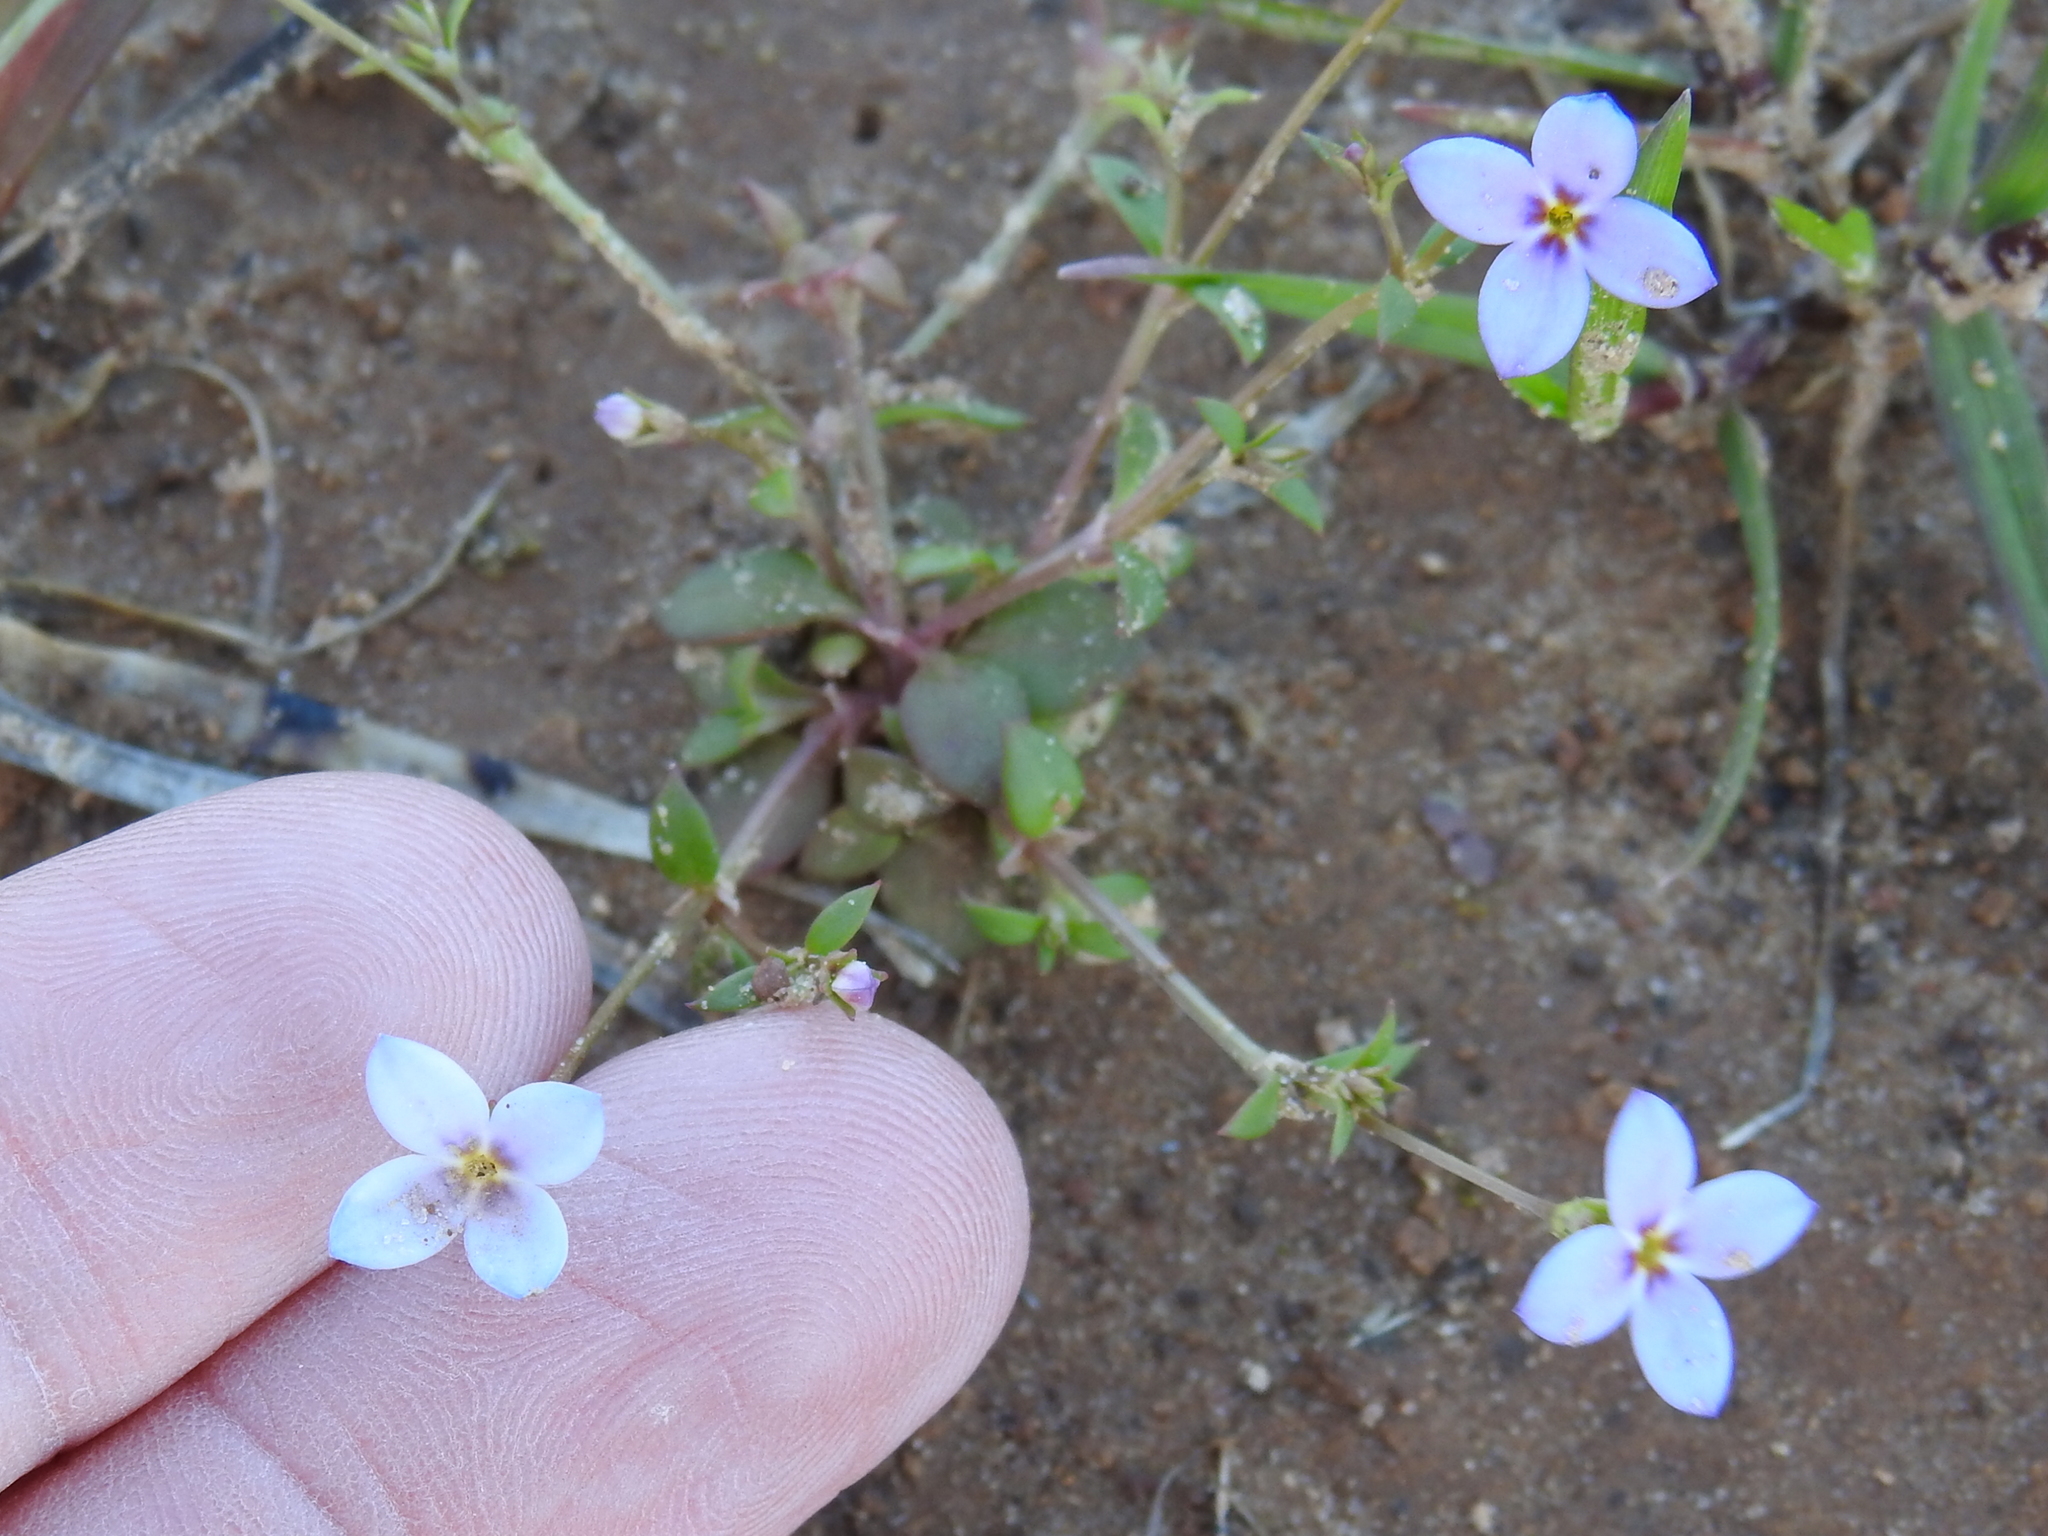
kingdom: Plantae
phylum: Tracheophyta
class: Magnoliopsida
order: Gentianales
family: Rubiaceae
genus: Houstonia
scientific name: Houstonia pusilla
